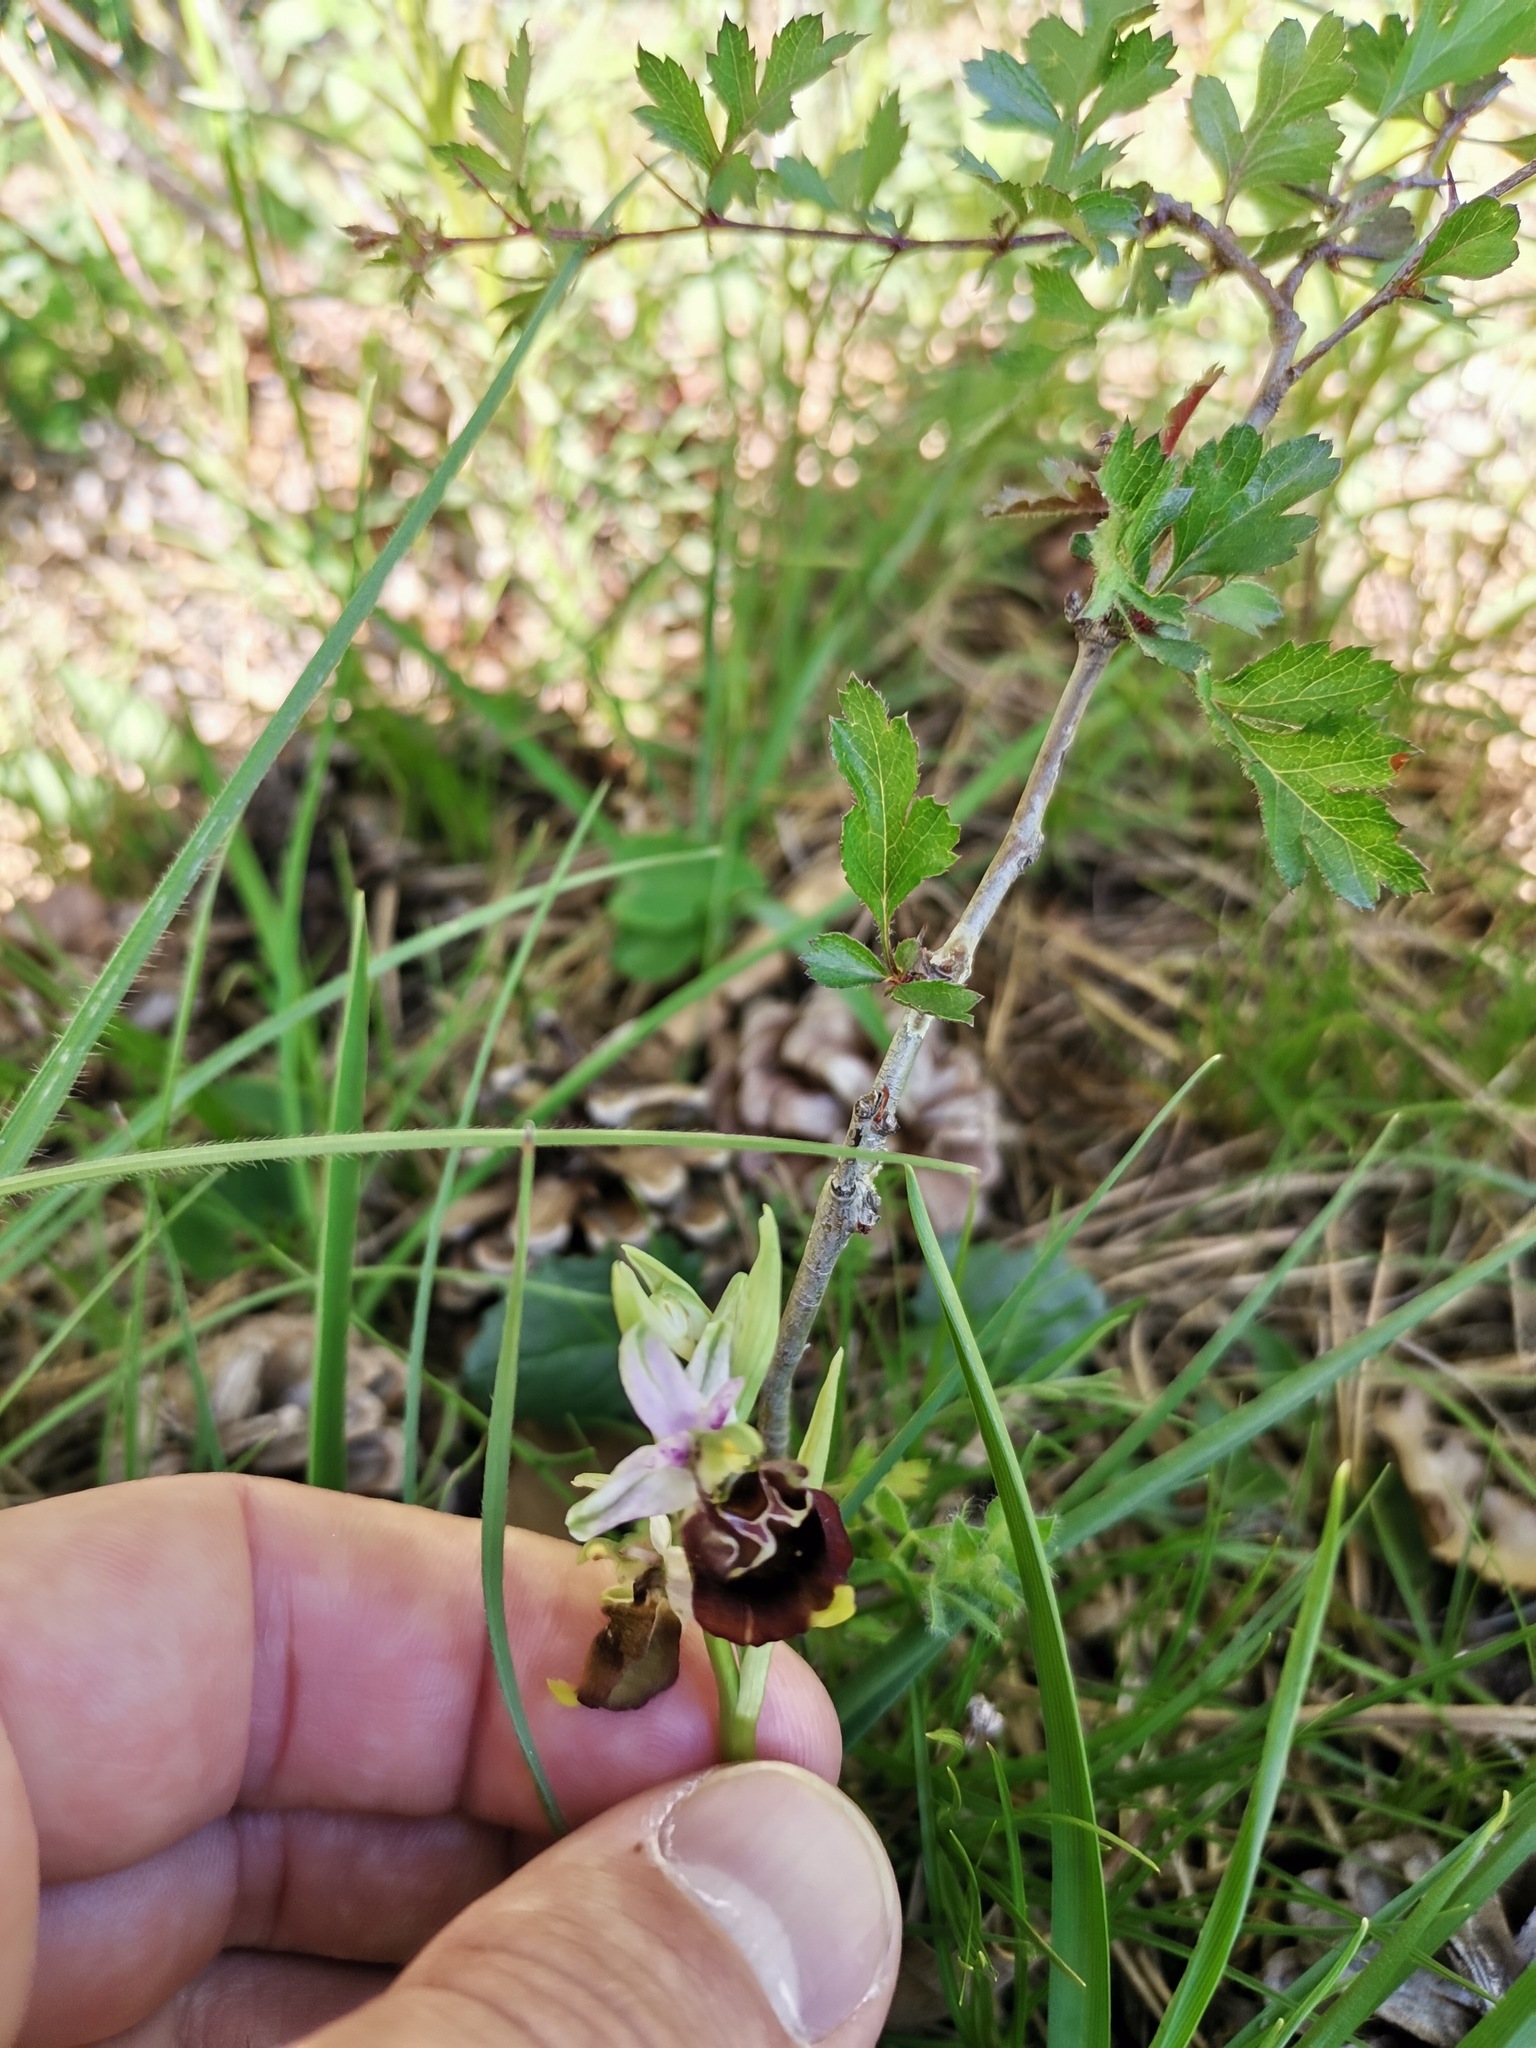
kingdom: Plantae
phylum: Tracheophyta
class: Liliopsida
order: Asparagales
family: Orchidaceae
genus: Ophrys
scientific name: Ophrys holosericea
